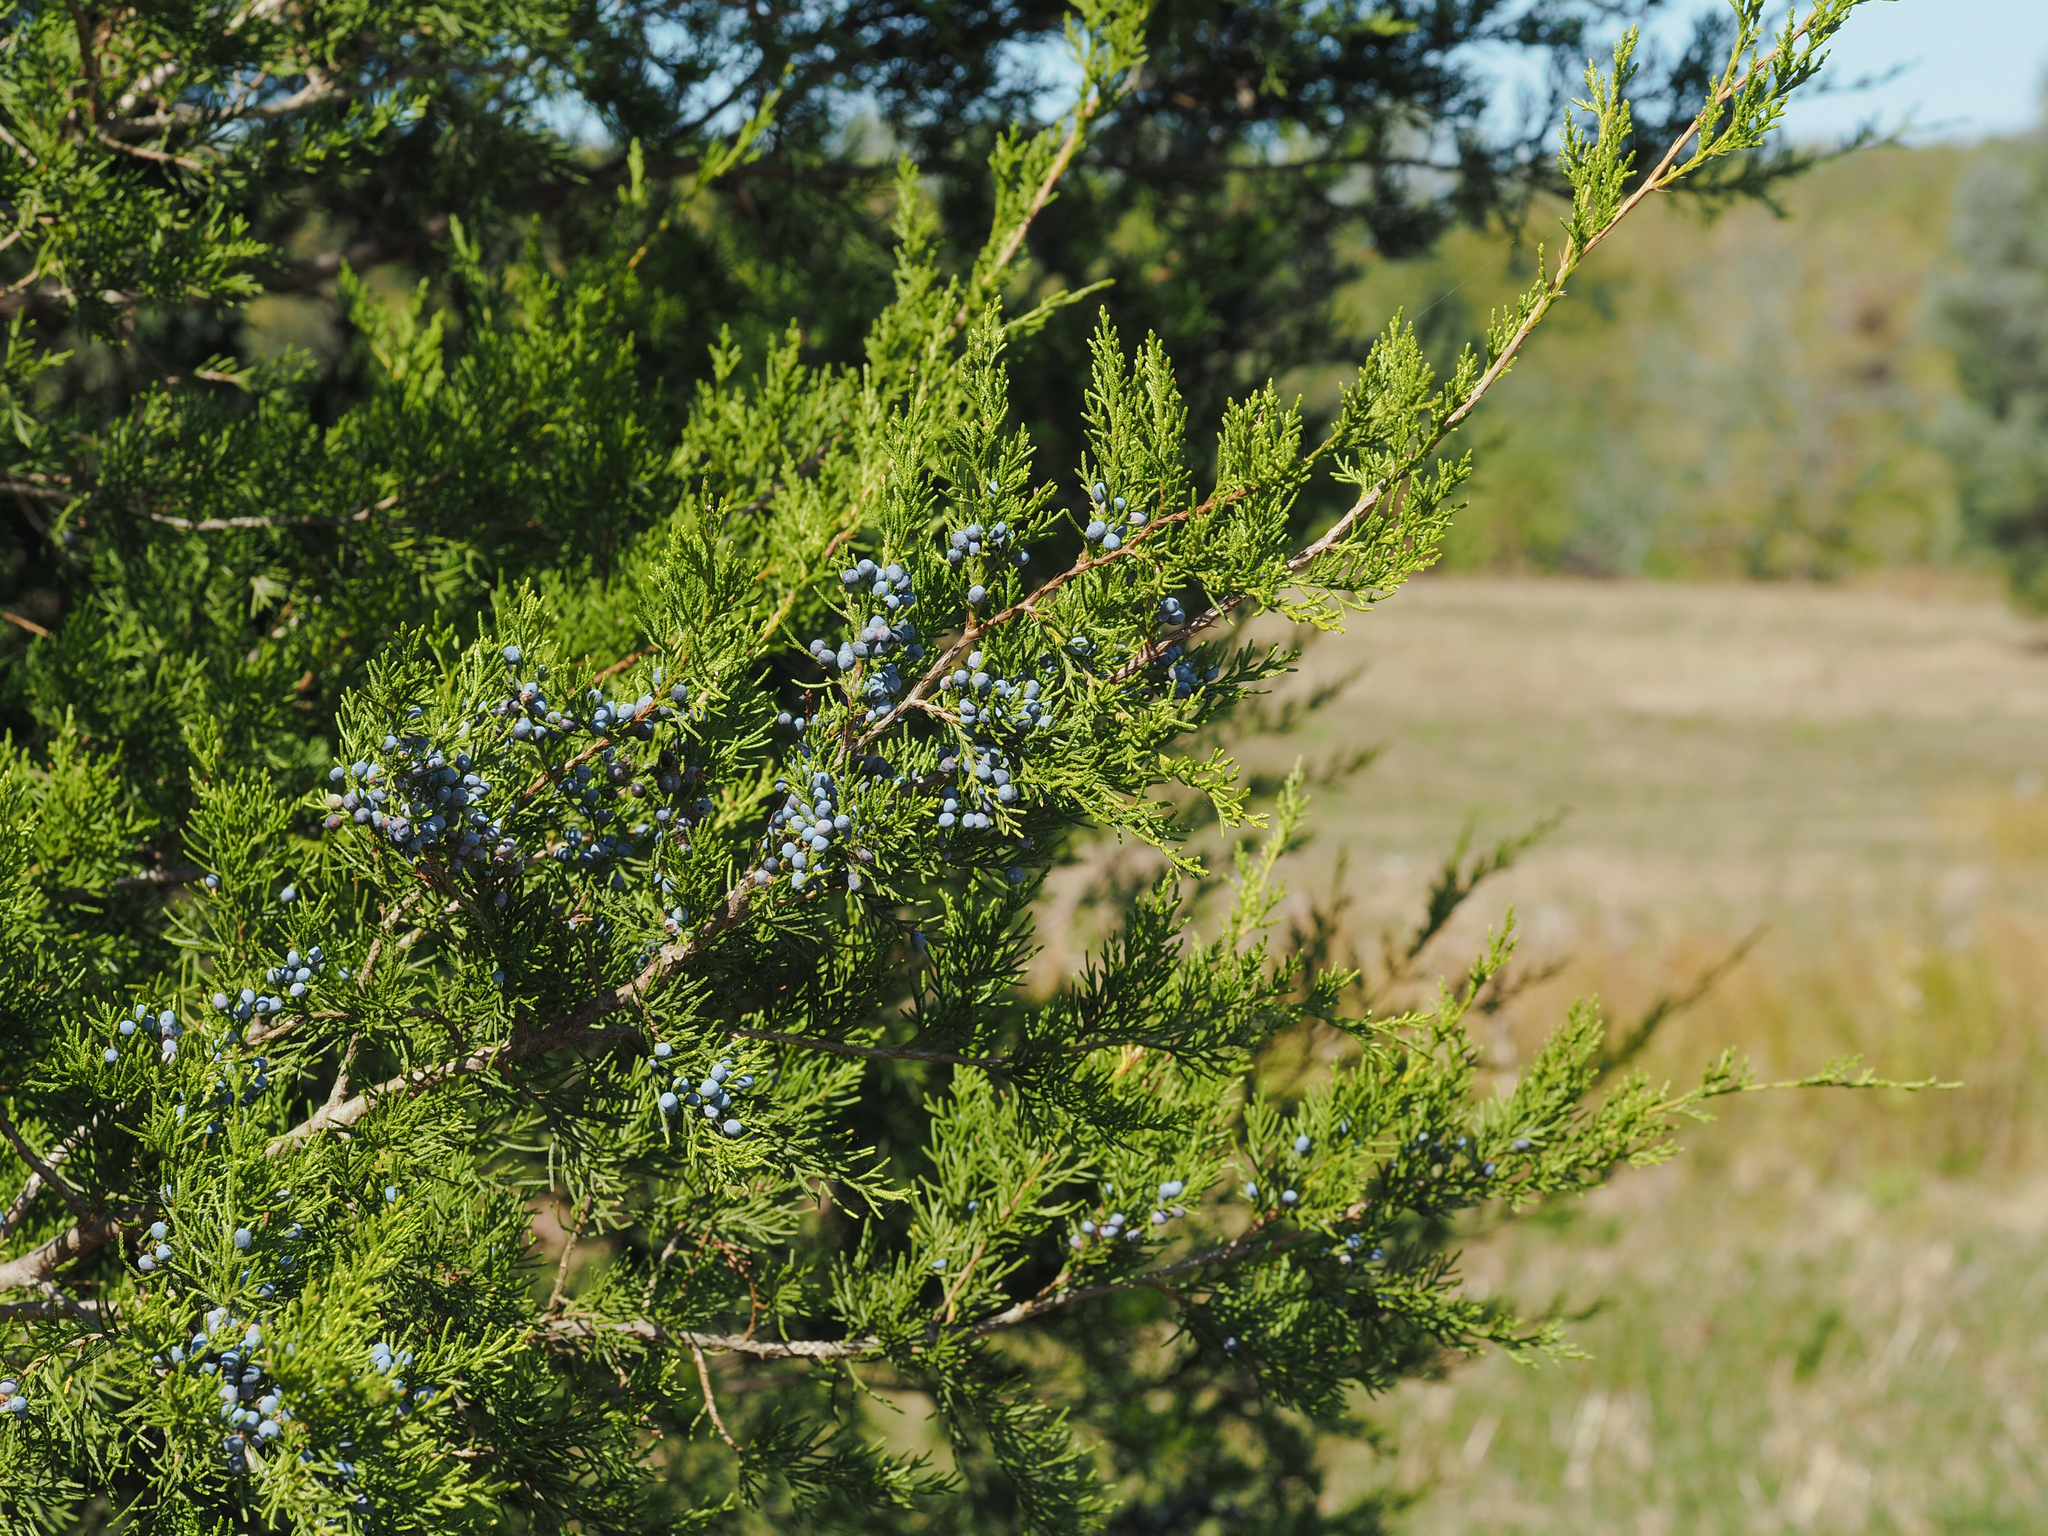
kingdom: Plantae
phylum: Tracheophyta
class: Pinopsida
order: Pinales
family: Cupressaceae
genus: Juniperus
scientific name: Juniperus virginiana
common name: Red juniper
